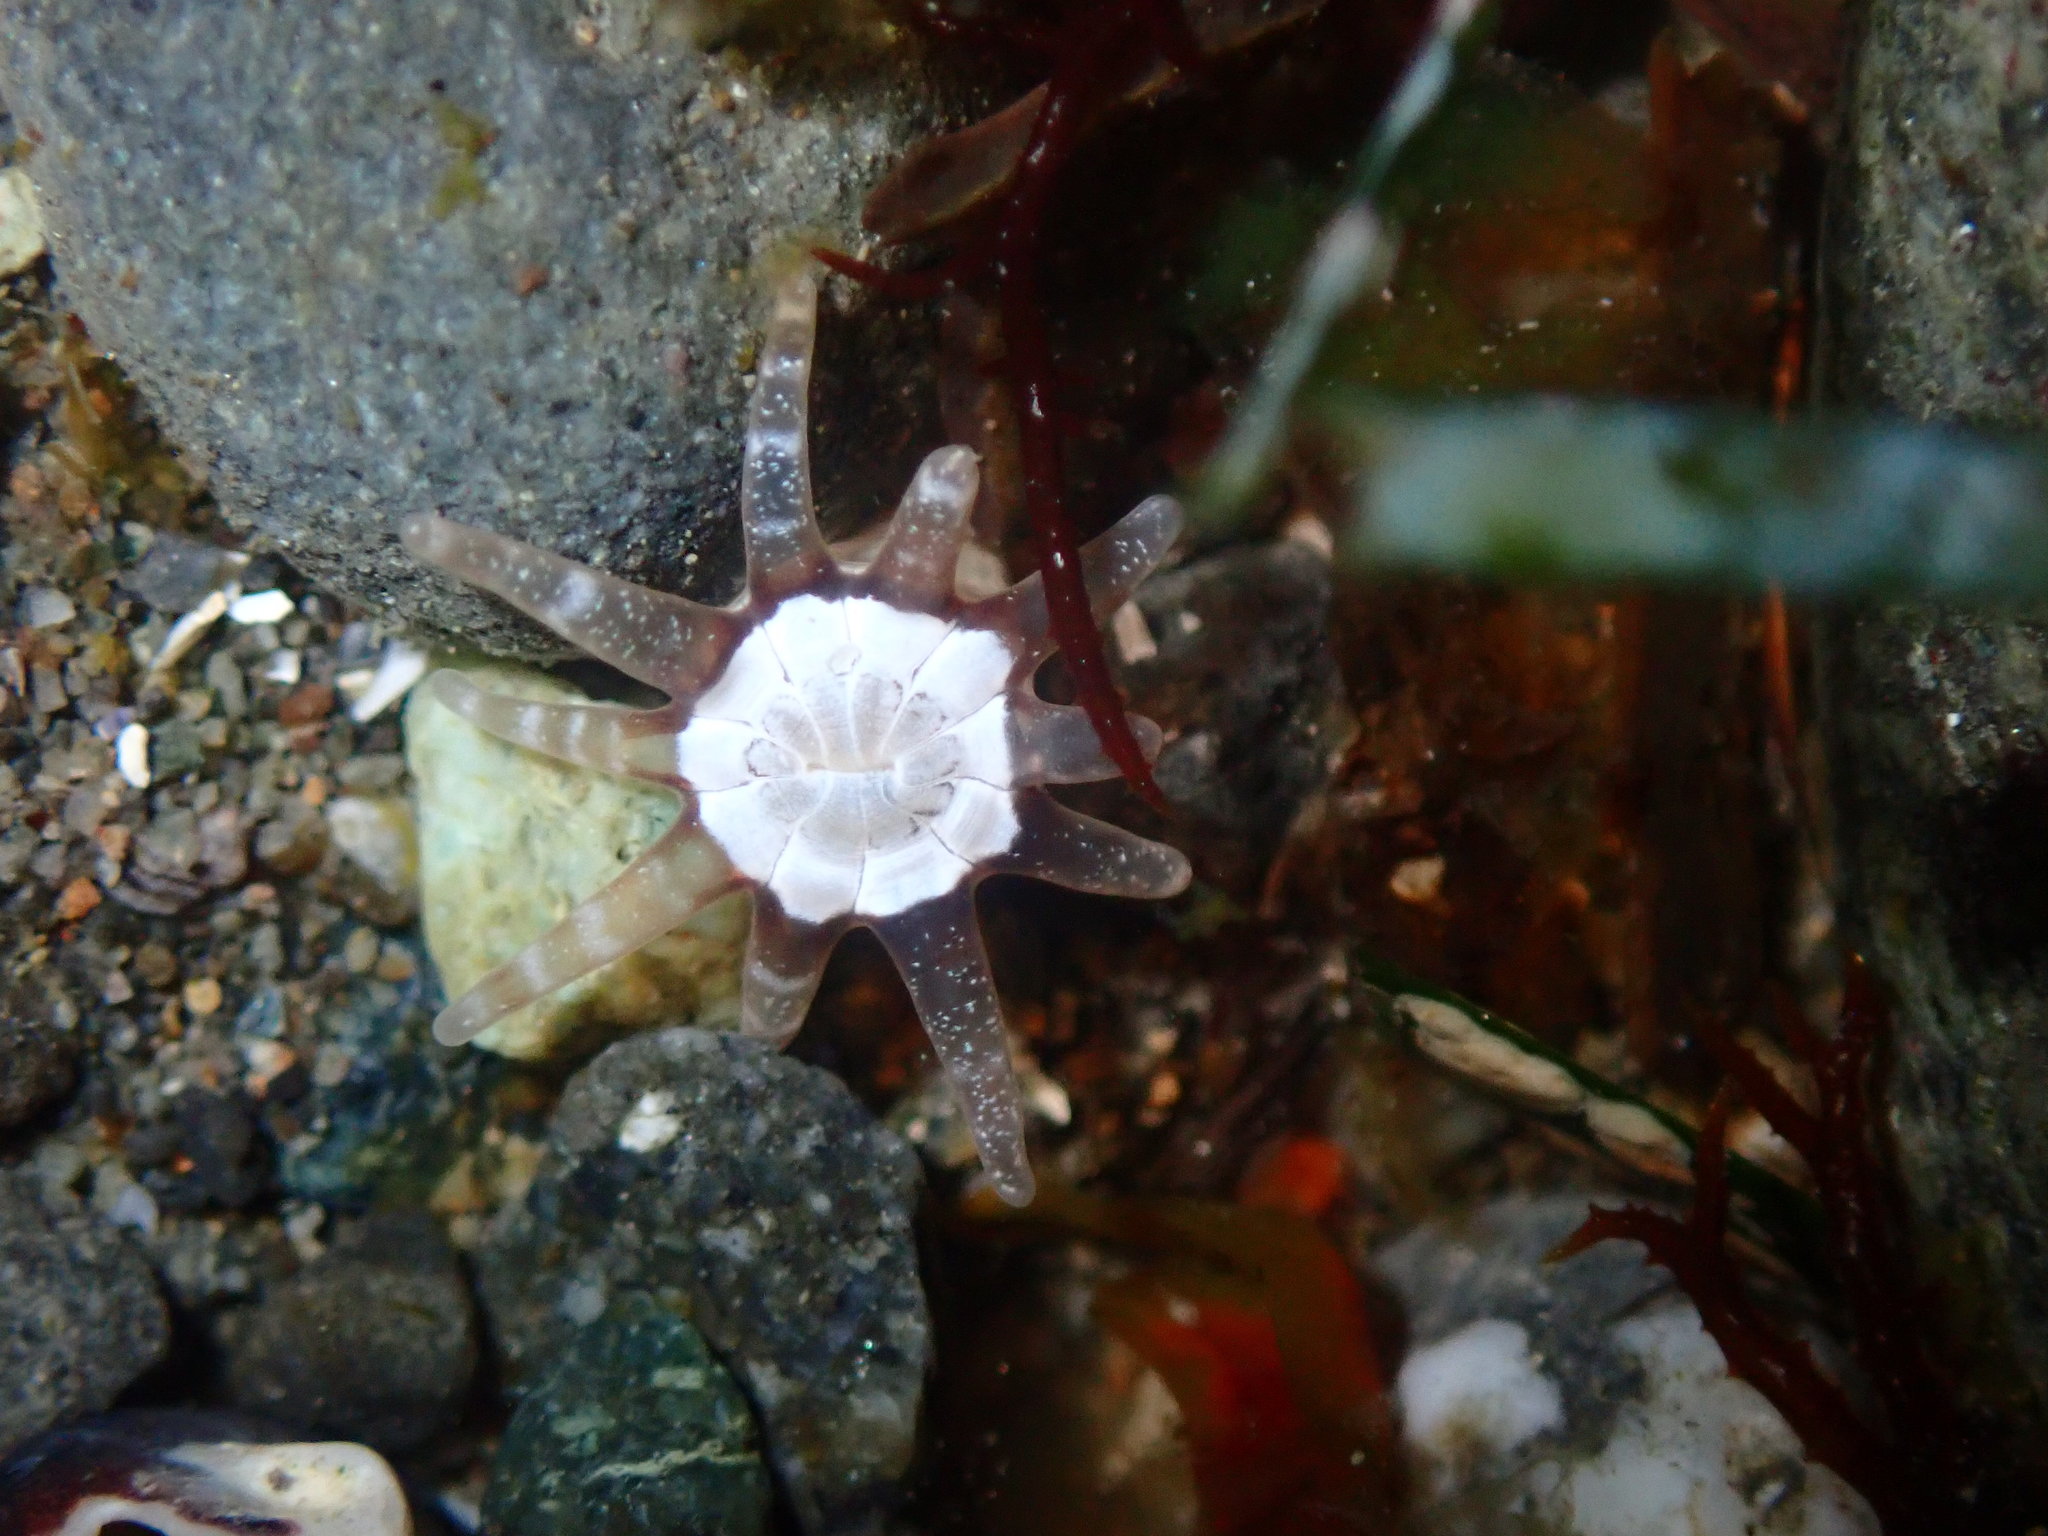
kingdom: Animalia
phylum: Cnidaria
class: Anthozoa
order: Actiniaria
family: Halcampidae
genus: Halcampa
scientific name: Halcampa decemtentaculata
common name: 10-tentacle burrowing anemone
